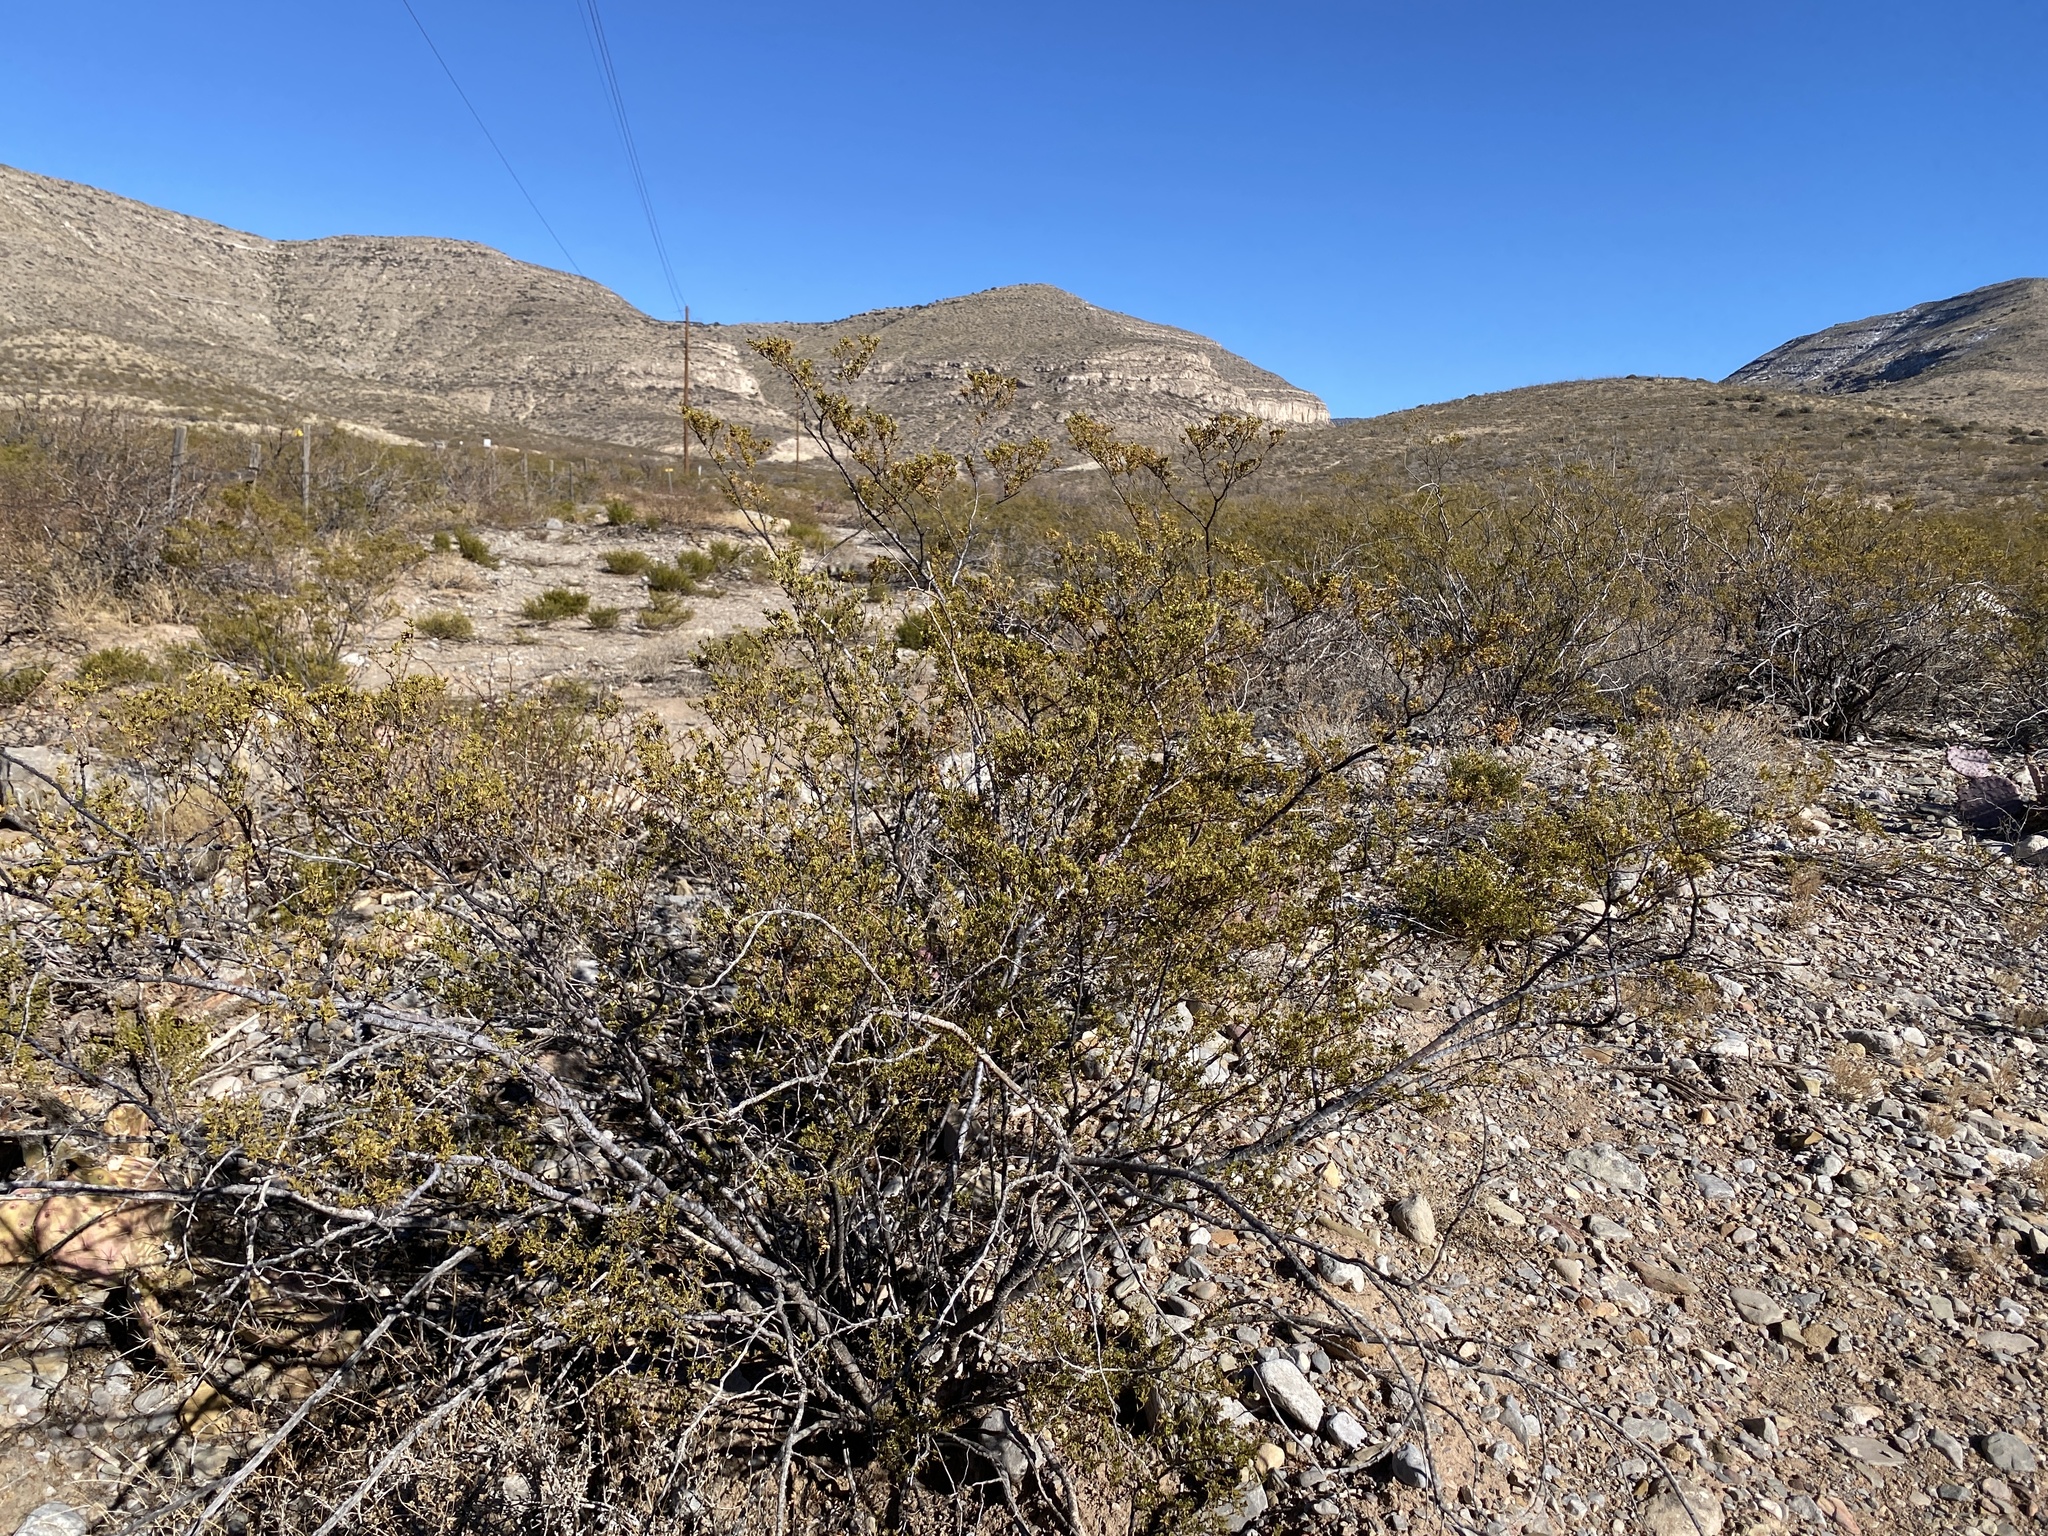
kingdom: Plantae
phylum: Tracheophyta
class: Magnoliopsida
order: Zygophyllales
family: Zygophyllaceae
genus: Larrea
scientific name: Larrea tridentata
